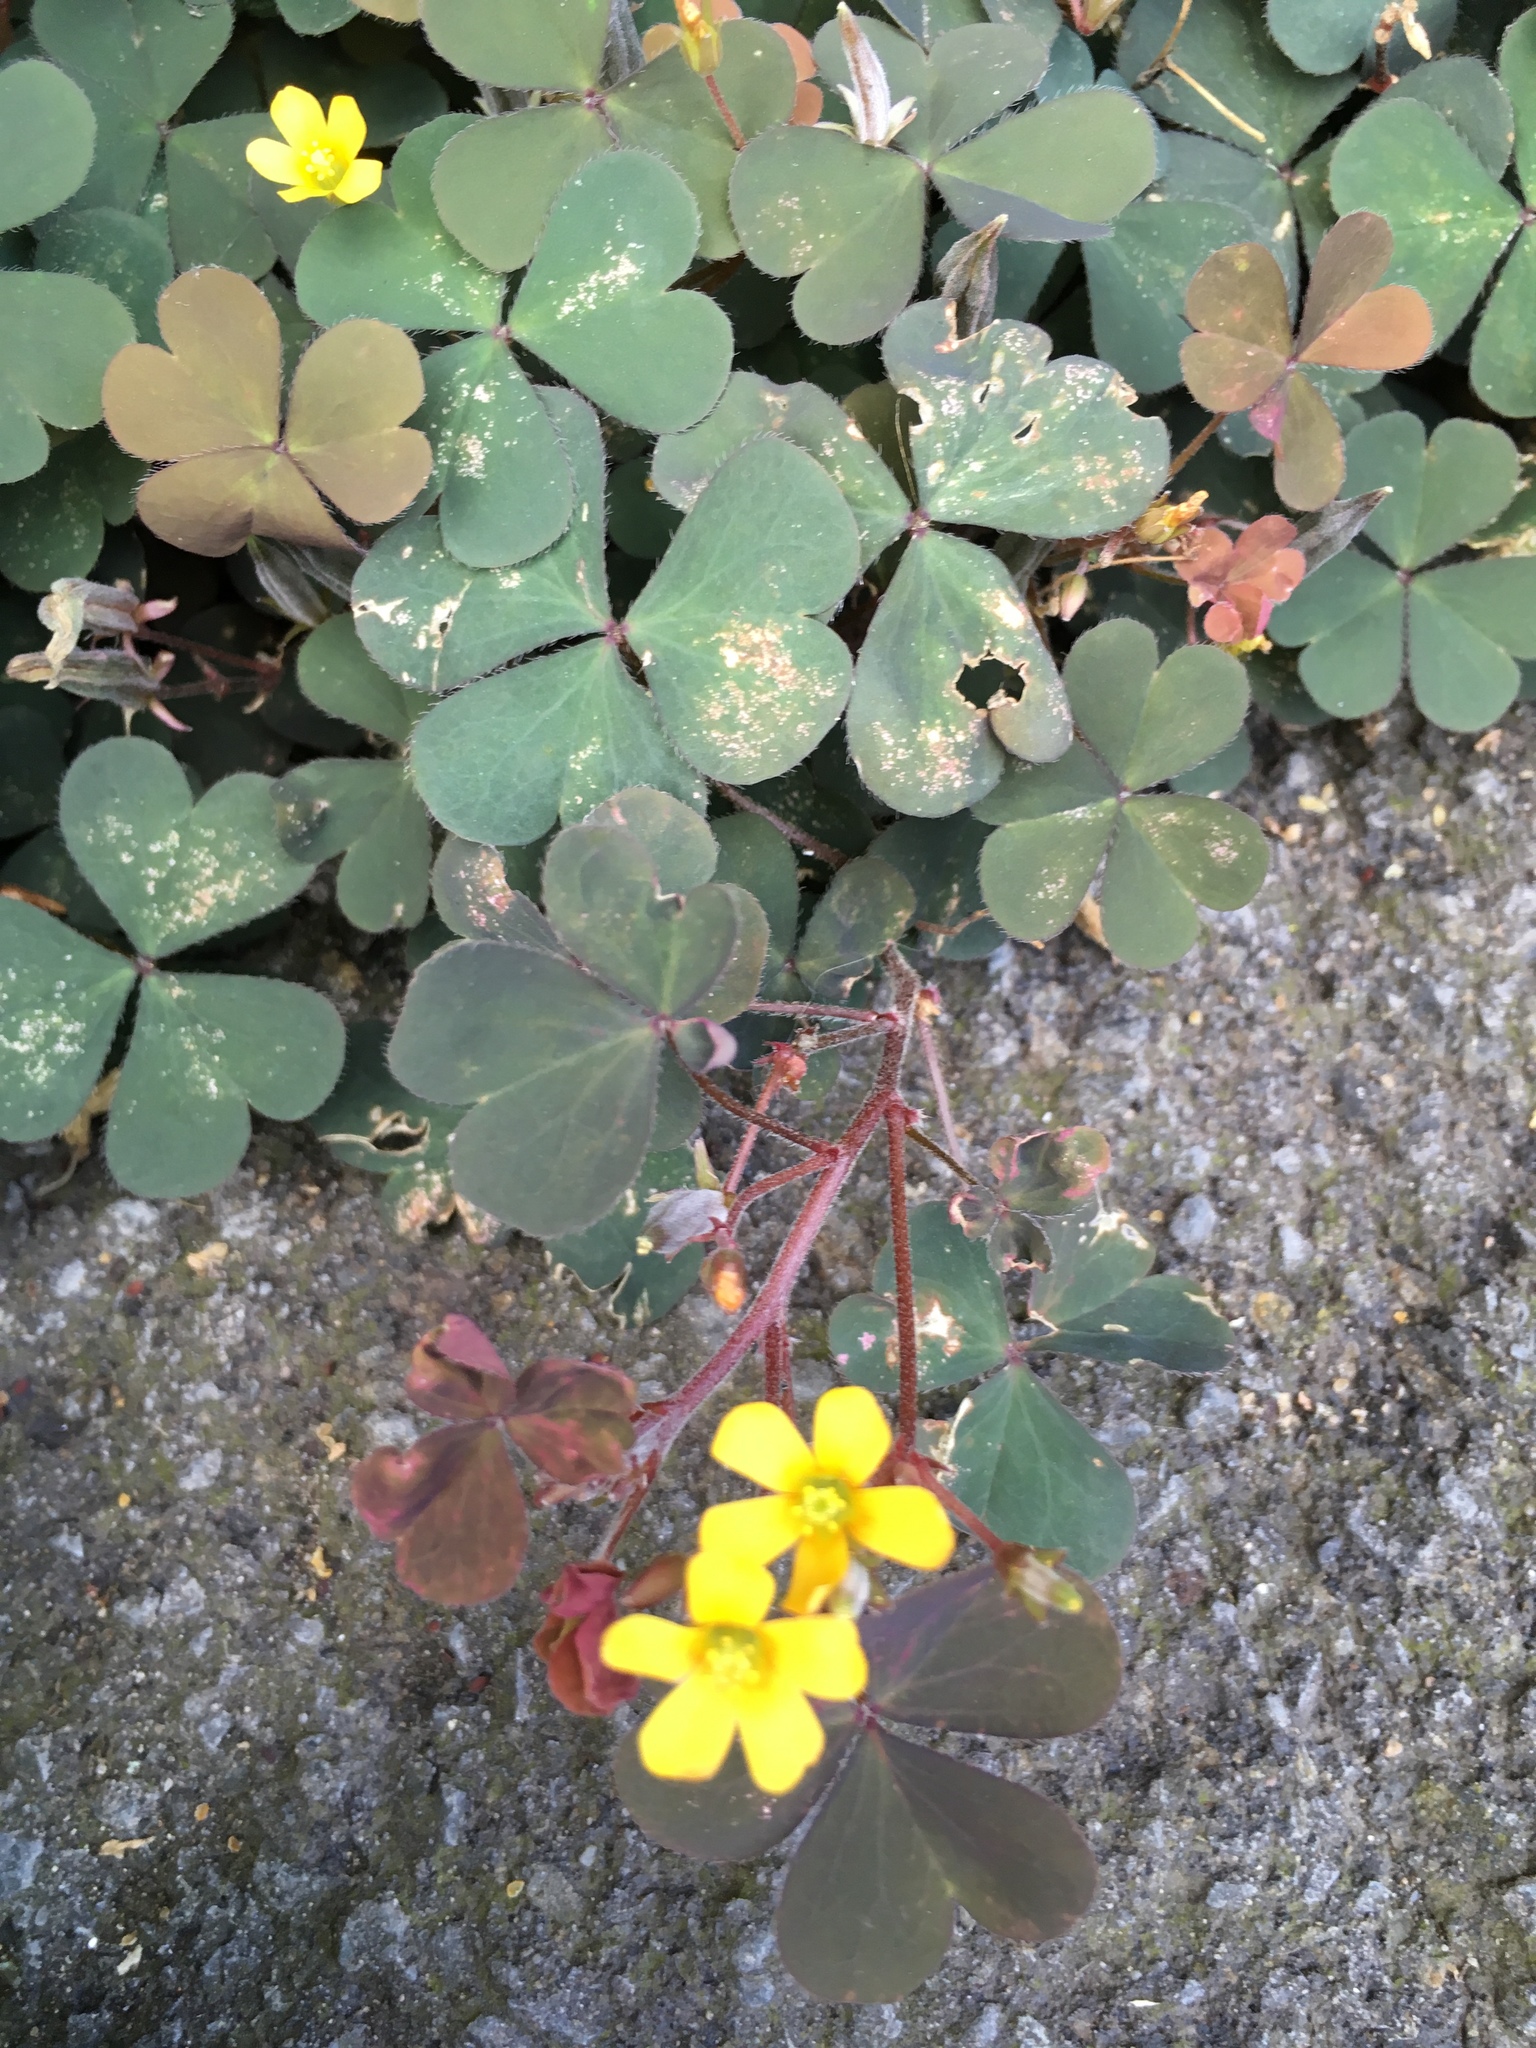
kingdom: Plantae
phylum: Tracheophyta
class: Magnoliopsida
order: Oxalidales
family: Oxalidaceae
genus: Oxalis
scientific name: Oxalis corniculata
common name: Procumbent yellow-sorrel
